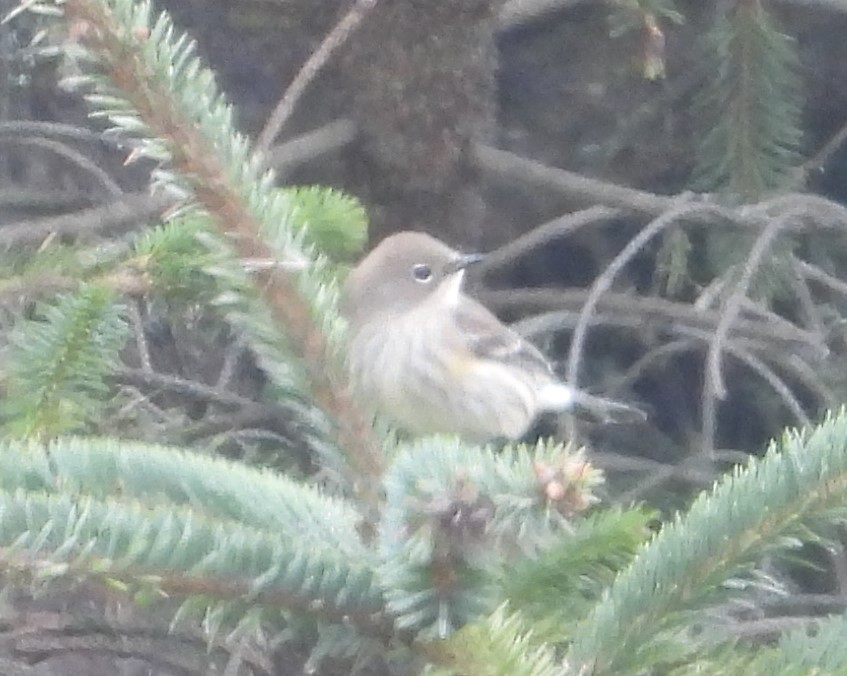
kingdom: Animalia
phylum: Chordata
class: Aves
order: Passeriformes
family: Parulidae
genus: Setophaga
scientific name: Setophaga coronata
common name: Myrtle warbler
